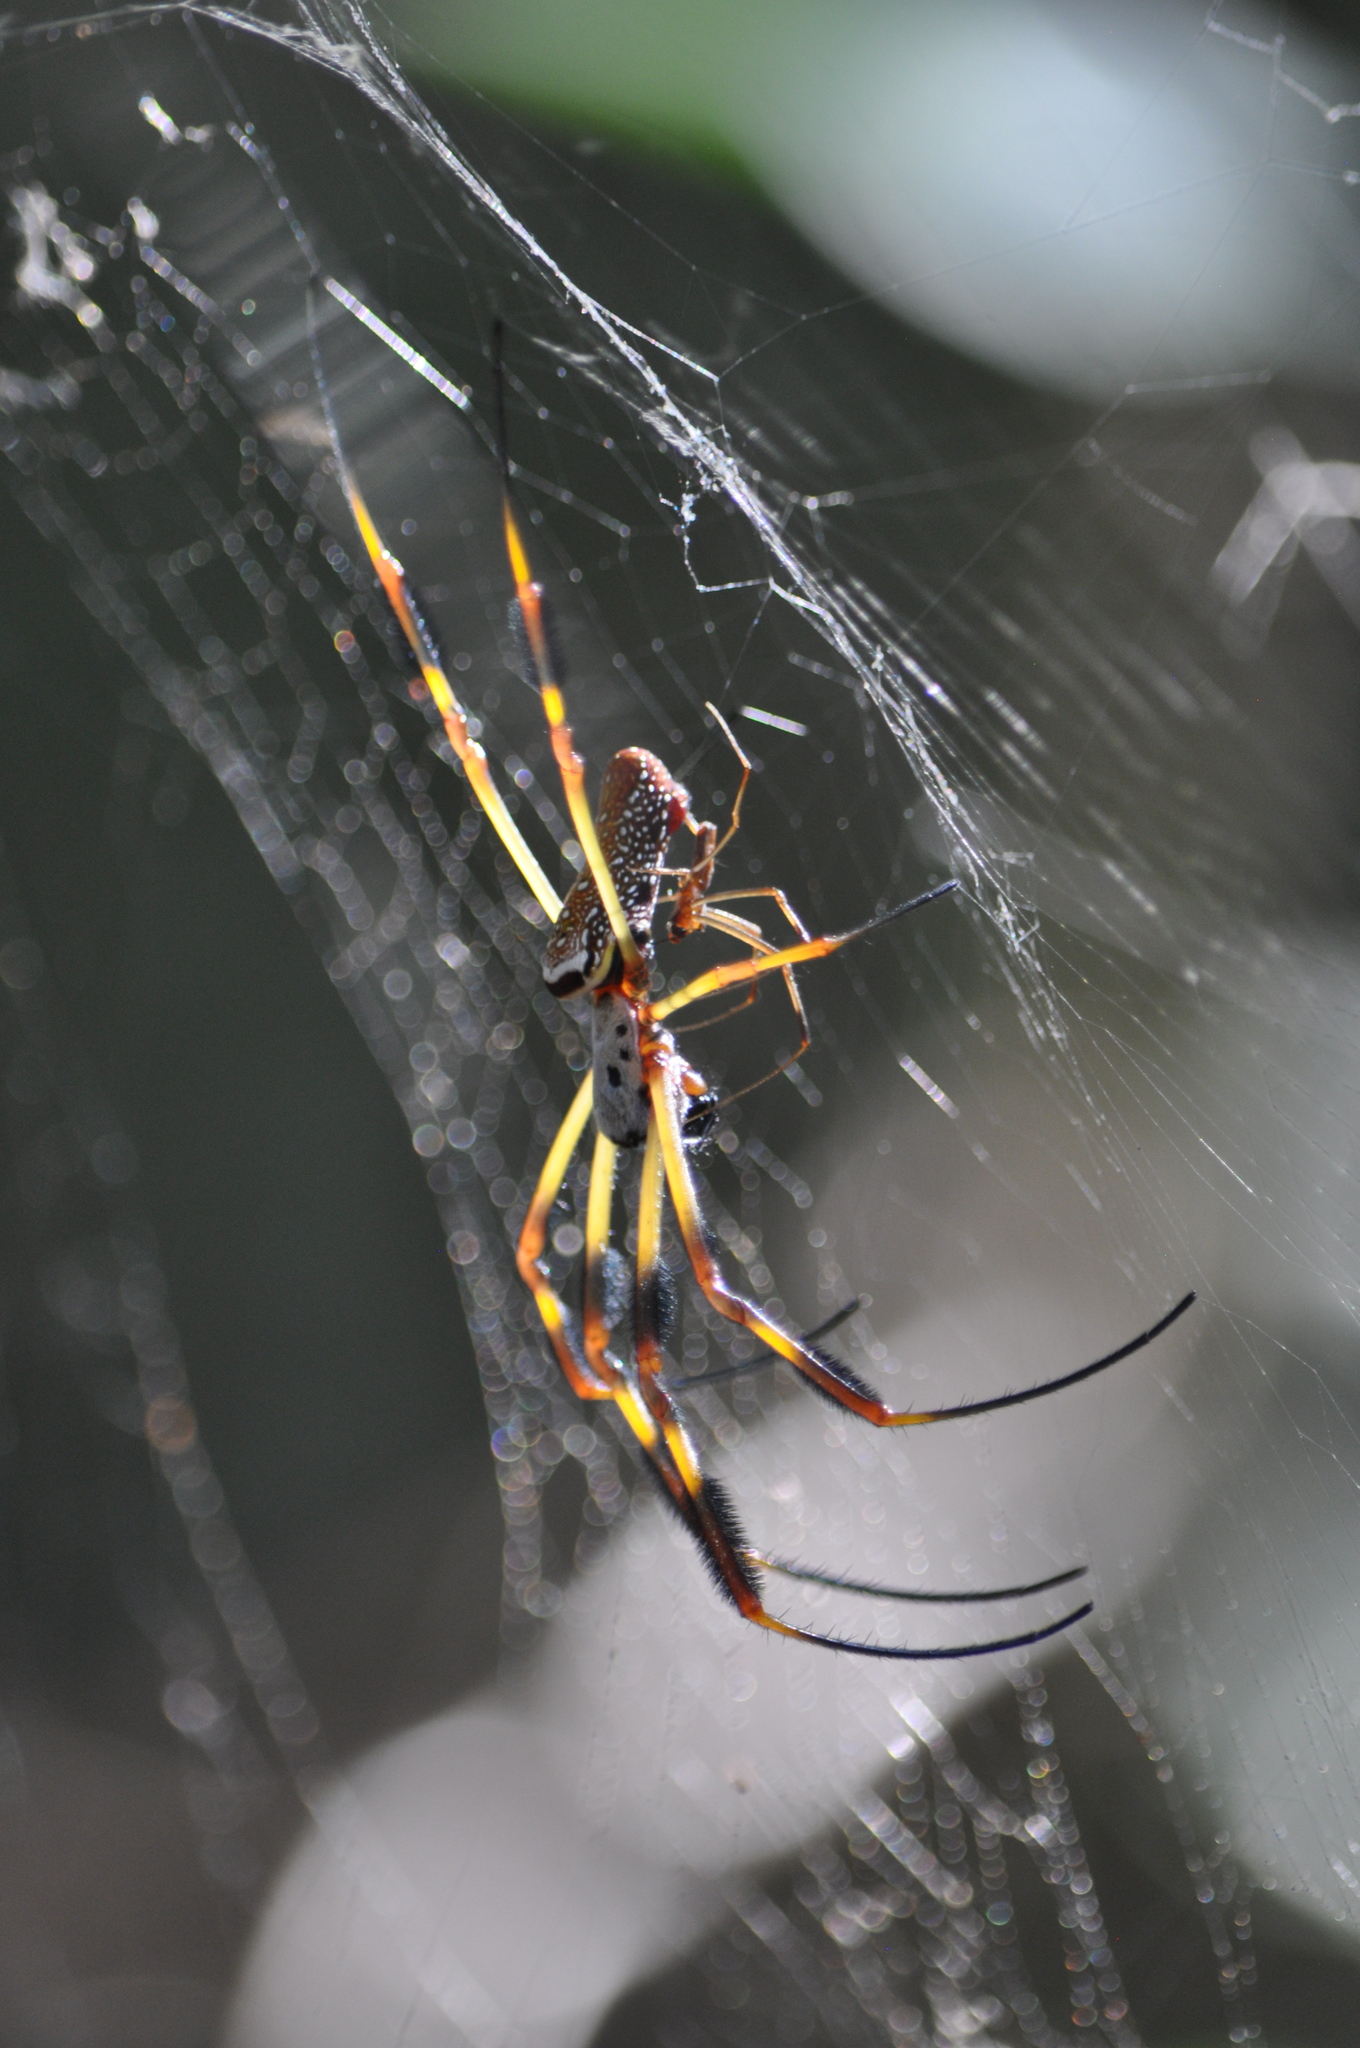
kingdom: Animalia
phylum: Arthropoda
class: Arachnida
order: Araneae
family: Araneidae
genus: Trichonephila
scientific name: Trichonephila clavipes
